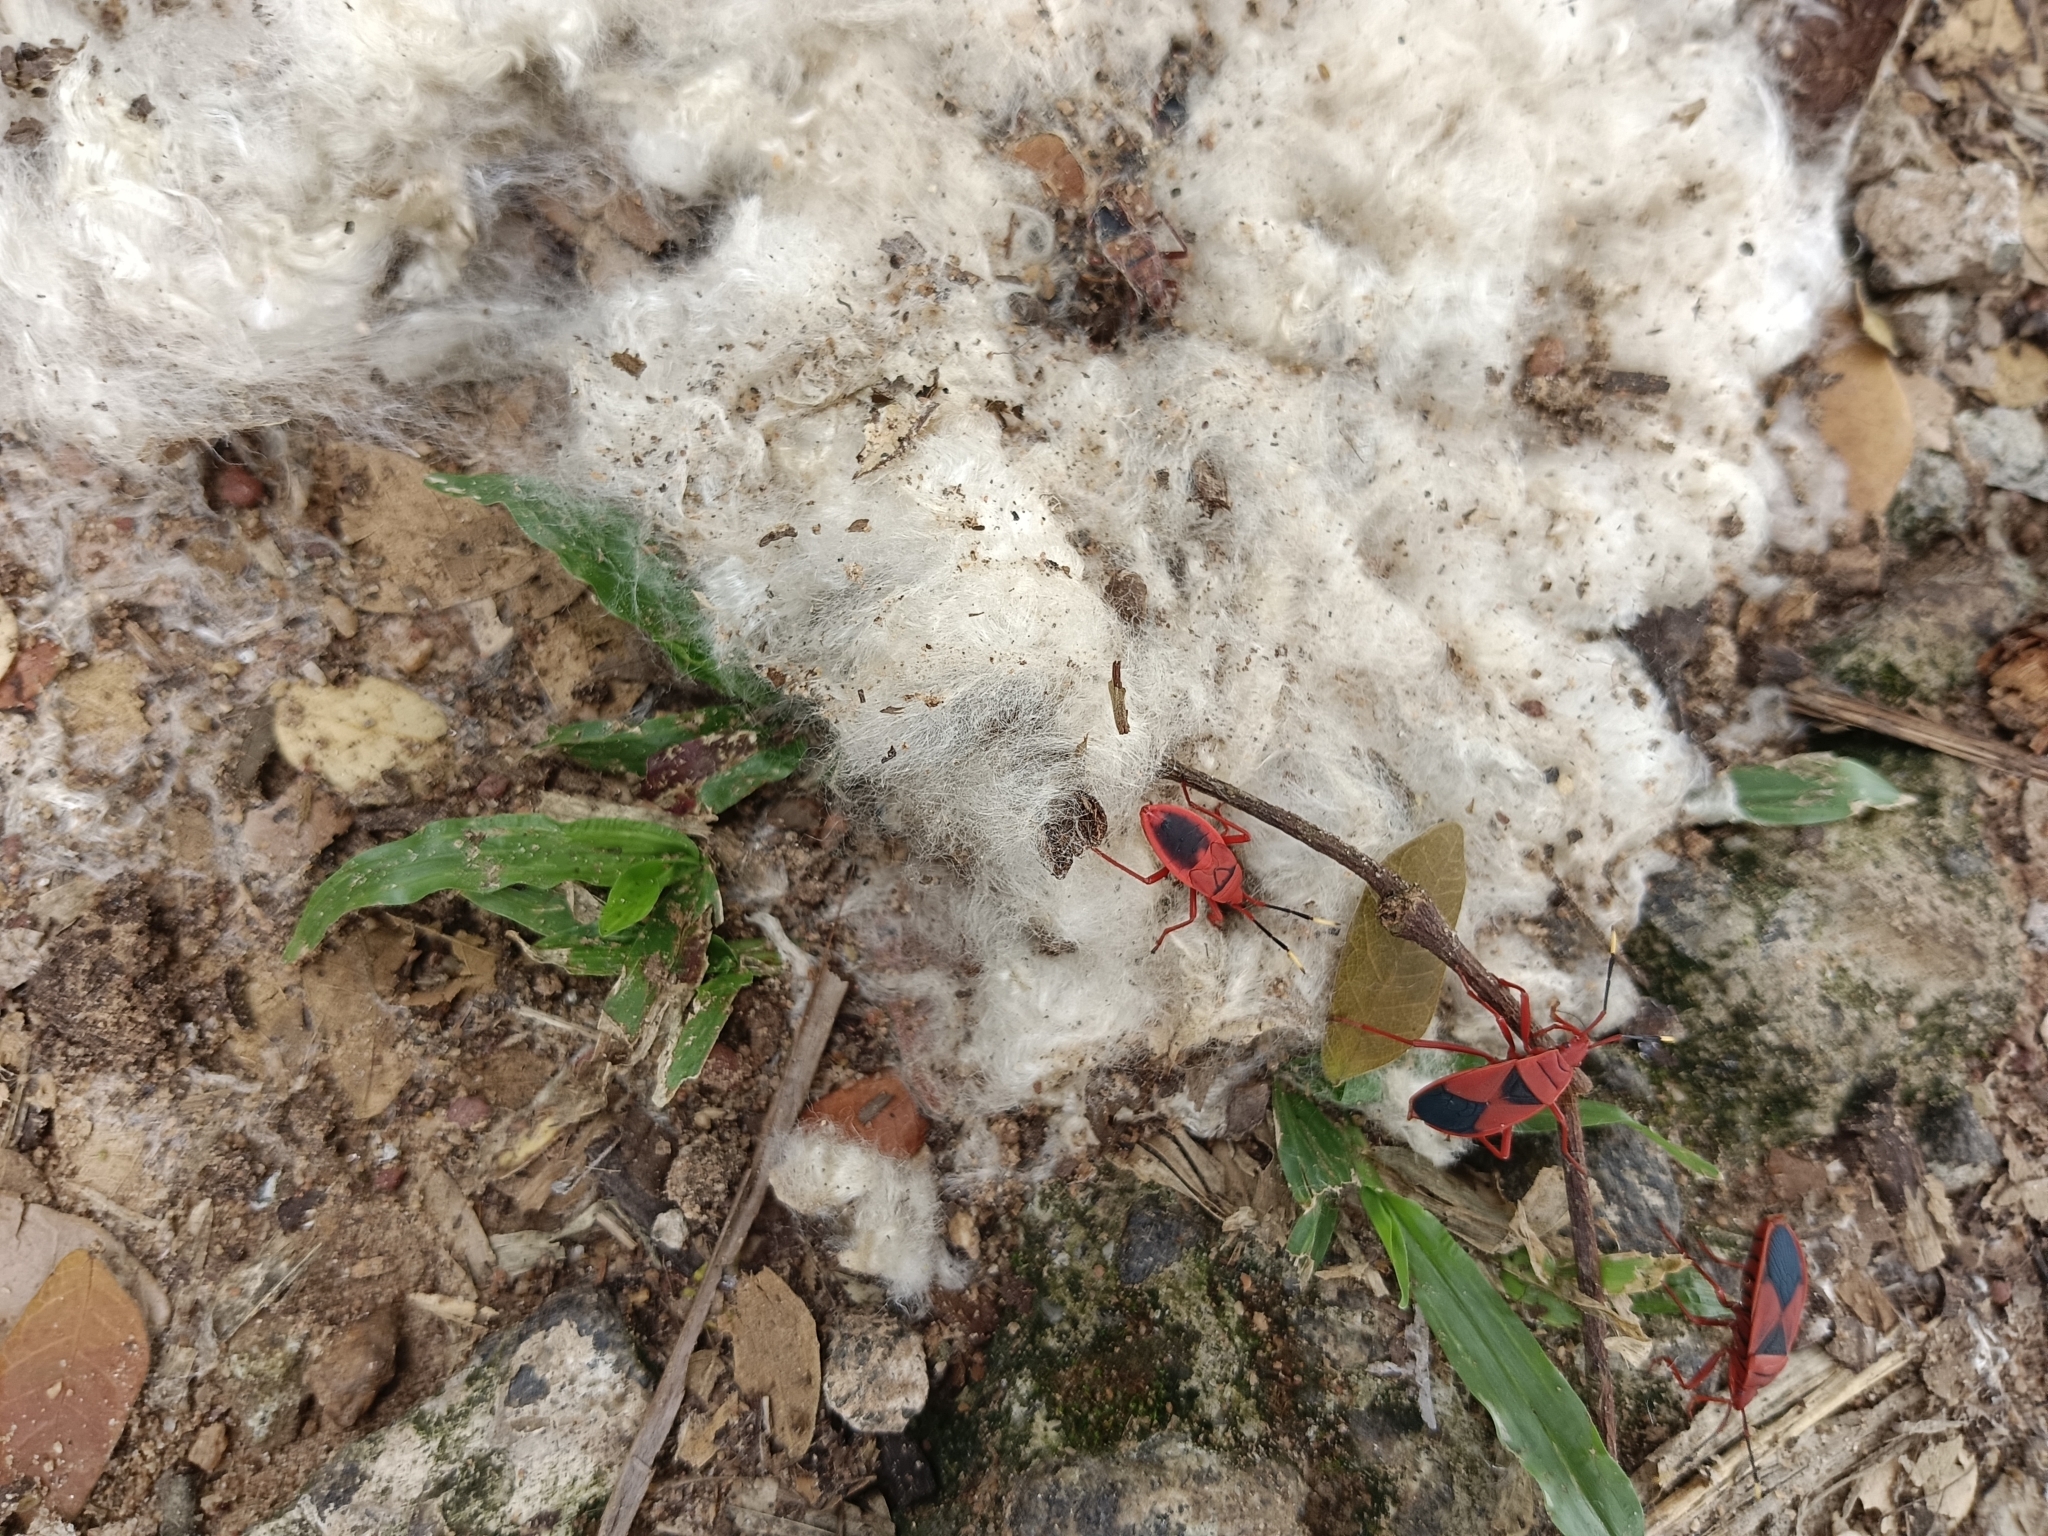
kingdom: Animalia
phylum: Arthropoda
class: Insecta
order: Hemiptera
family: Pyrrhocoridae
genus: Probergrothius
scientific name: Probergrothius
